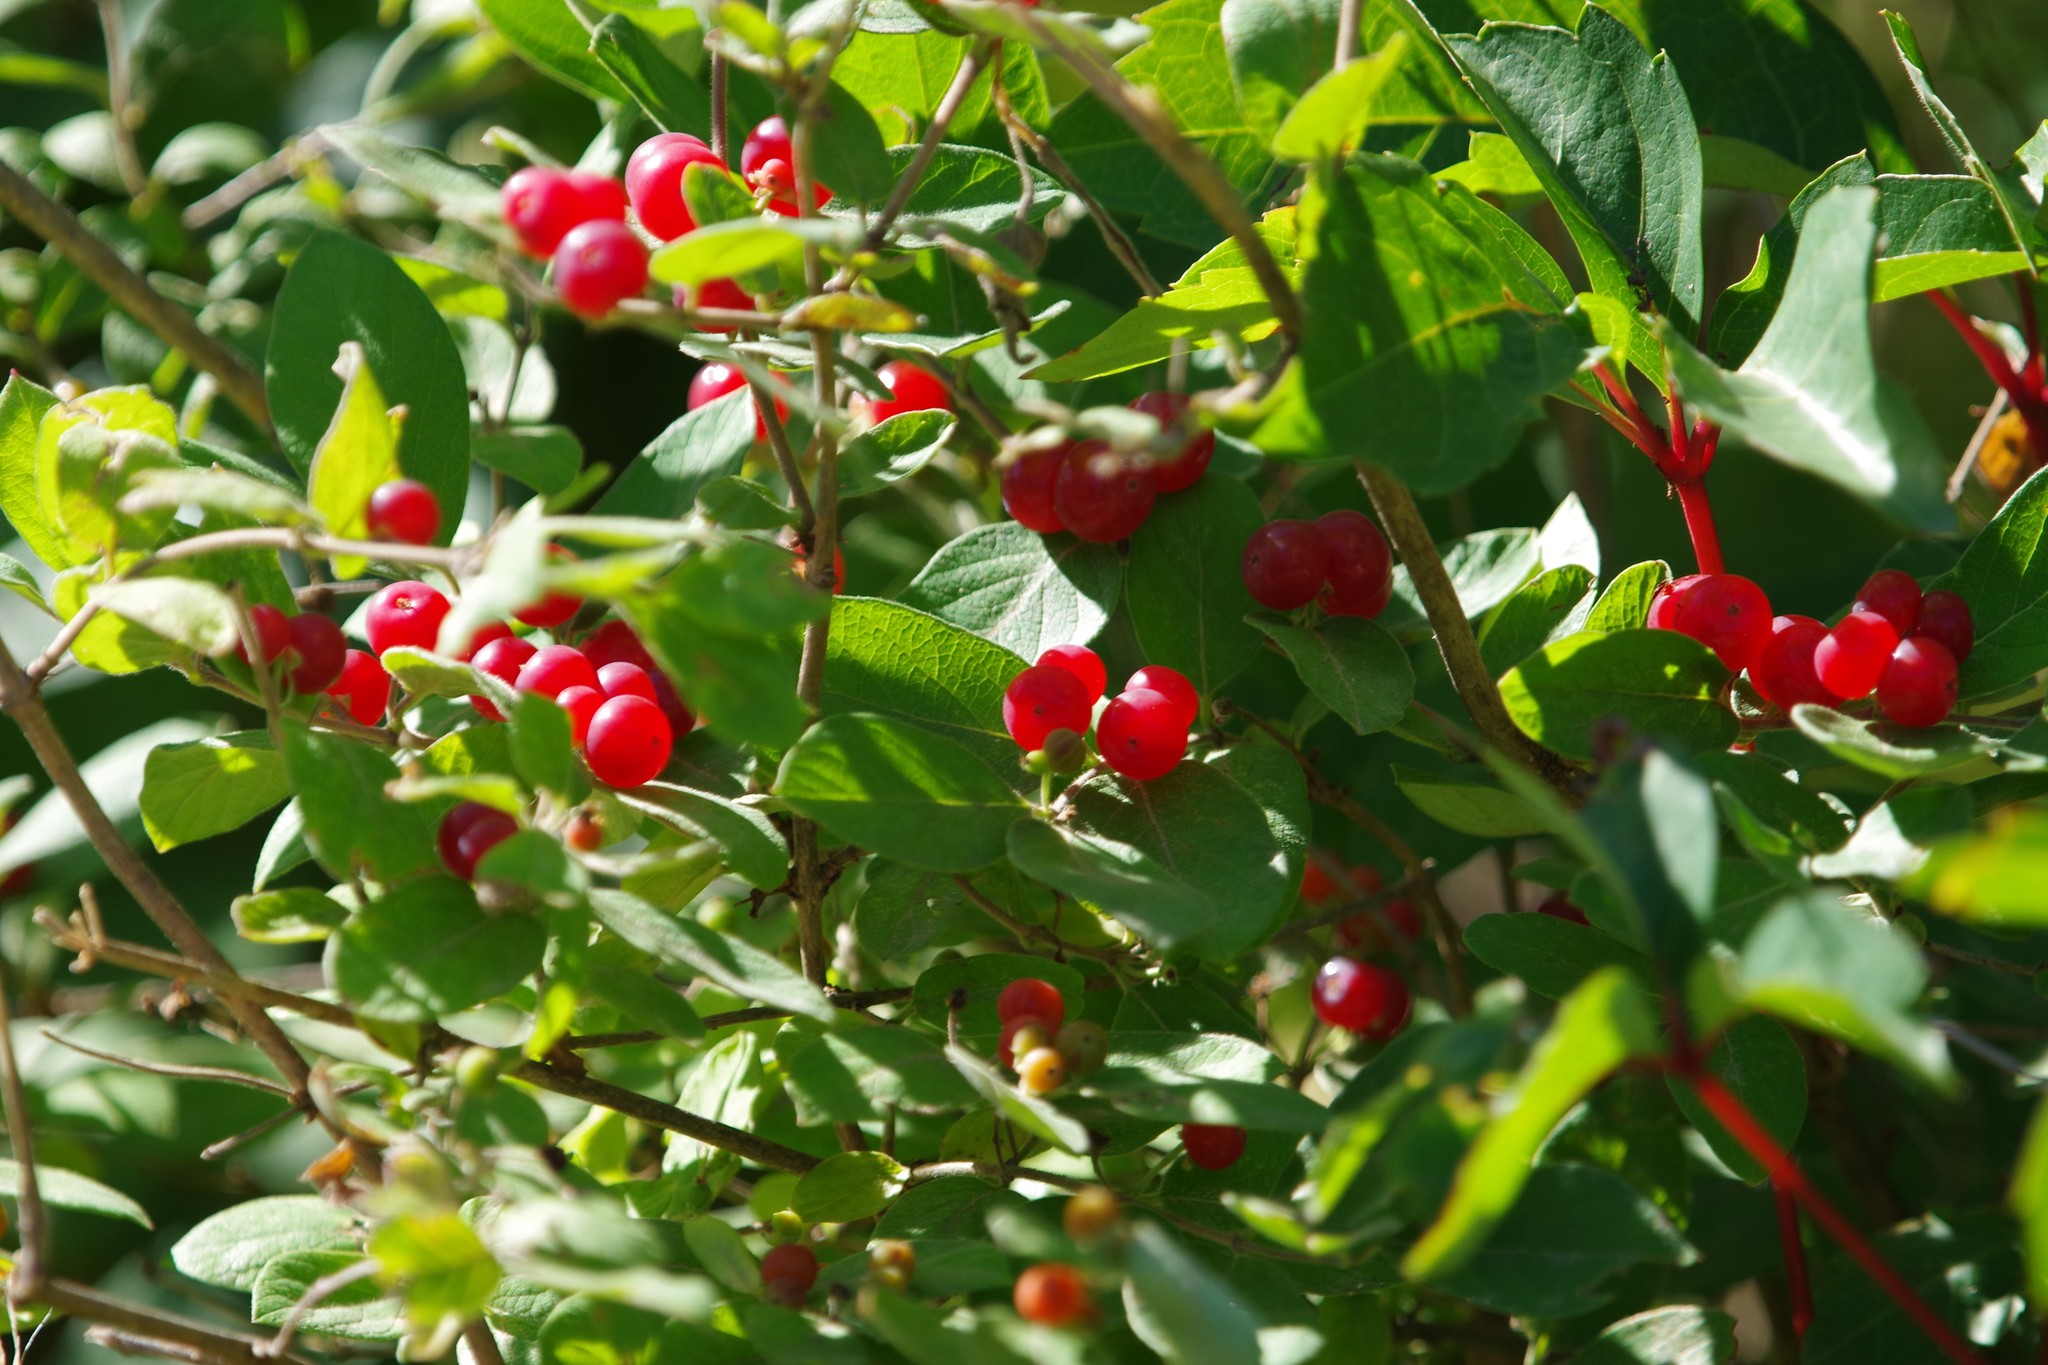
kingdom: Plantae
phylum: Tracheophyta
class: Magnoliopsida
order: Dipsacales
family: Caprifoliaceae
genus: Lonicera
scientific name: Lonicera morrowii
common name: Morrow's honeysuckle
